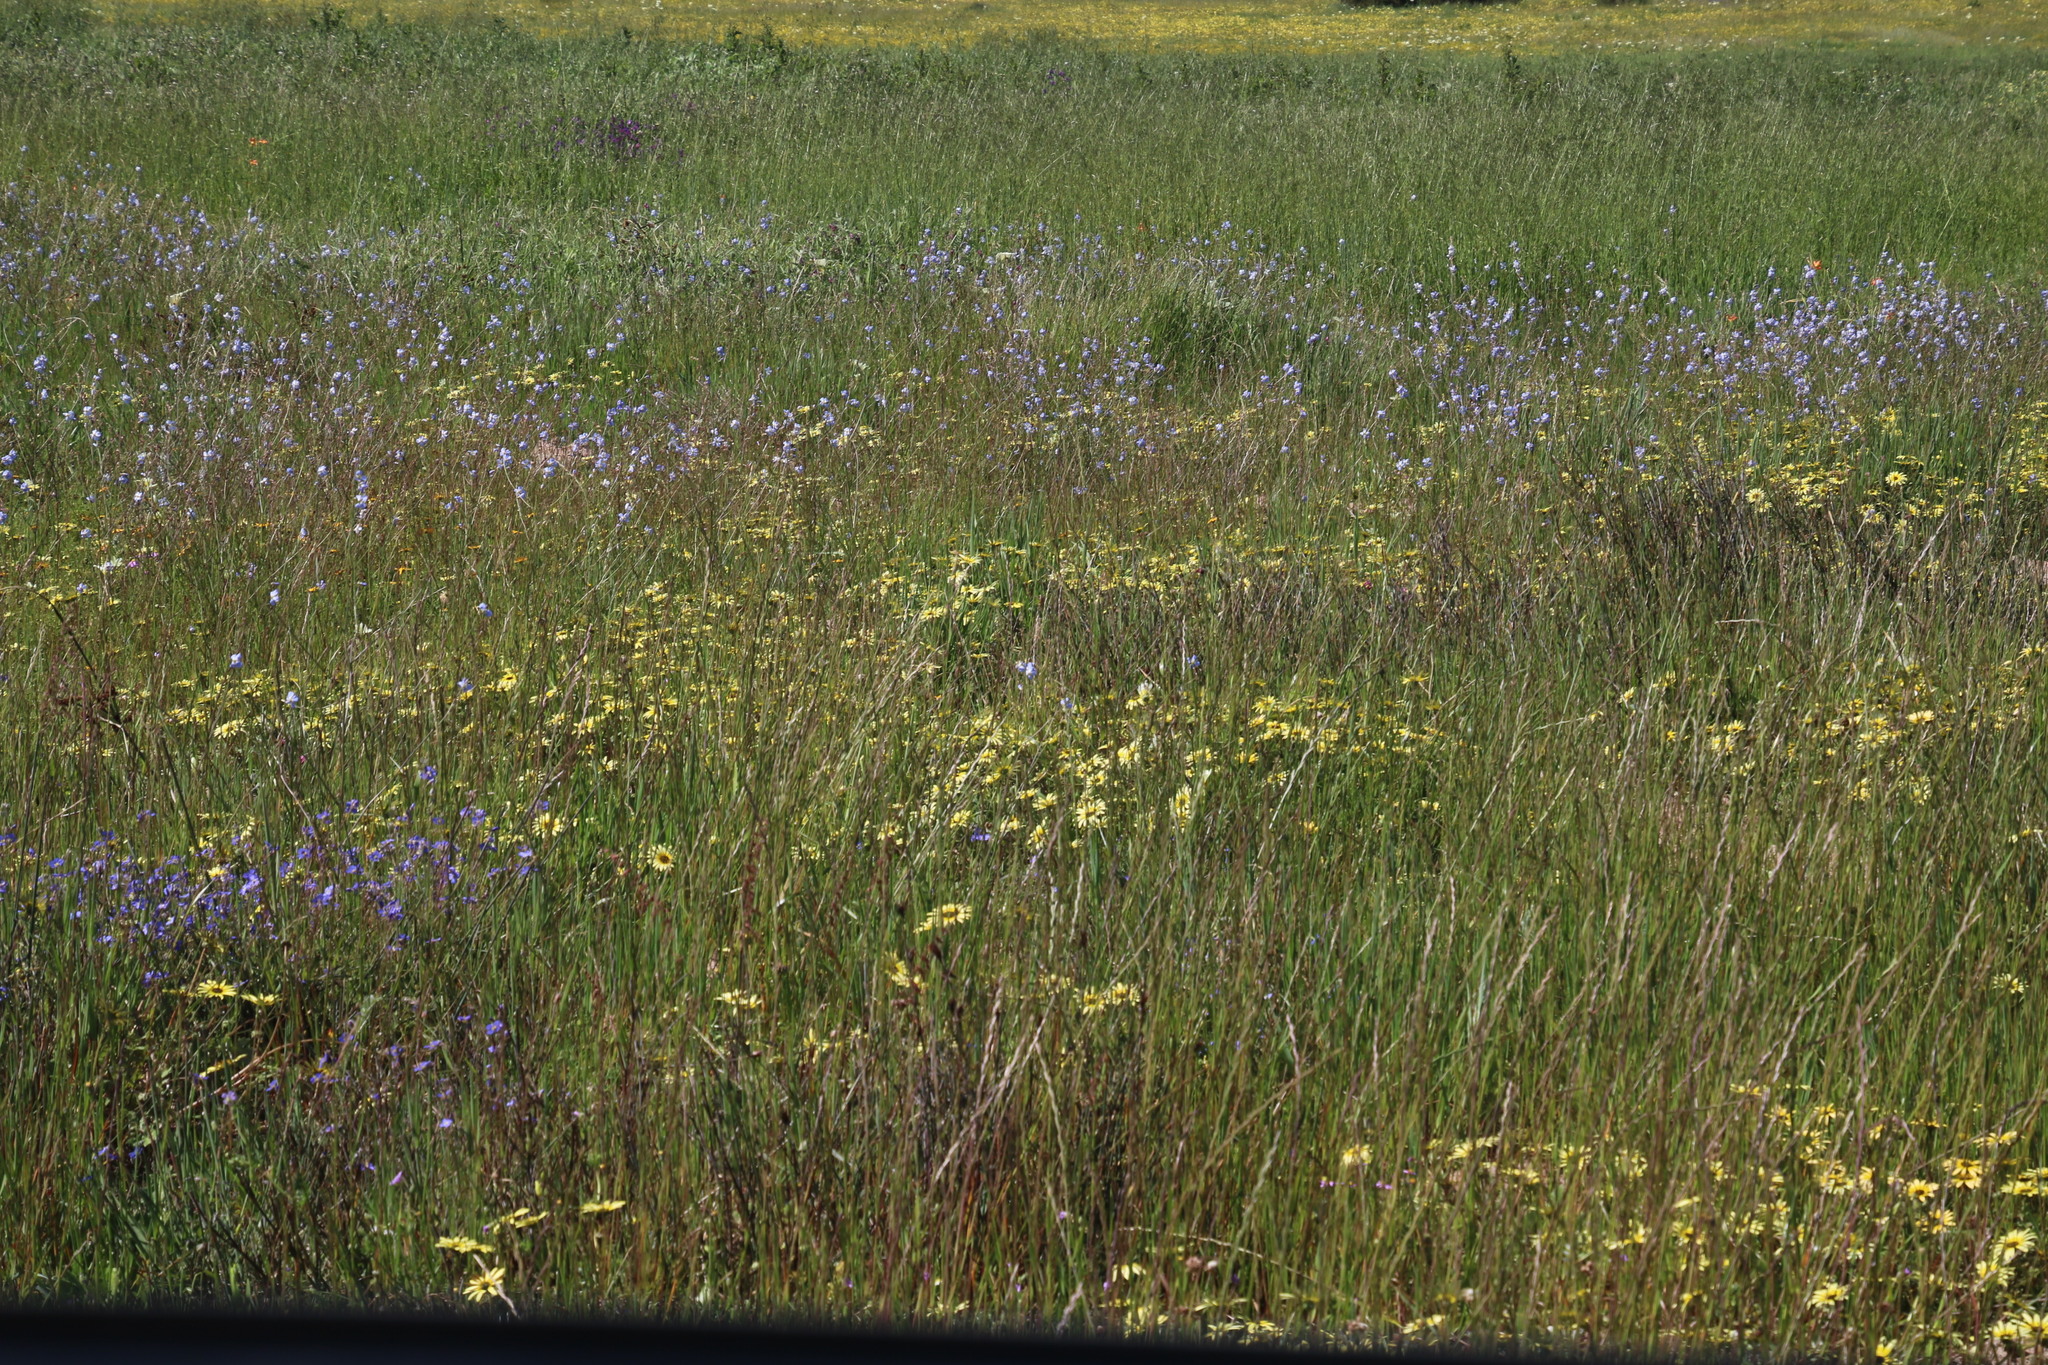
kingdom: Plantae
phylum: Tracheophyta
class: Magnoliopsida
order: Asterales
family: Asteraceae
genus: Arctotheca
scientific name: Arctotheca calendula
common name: Capeweed
